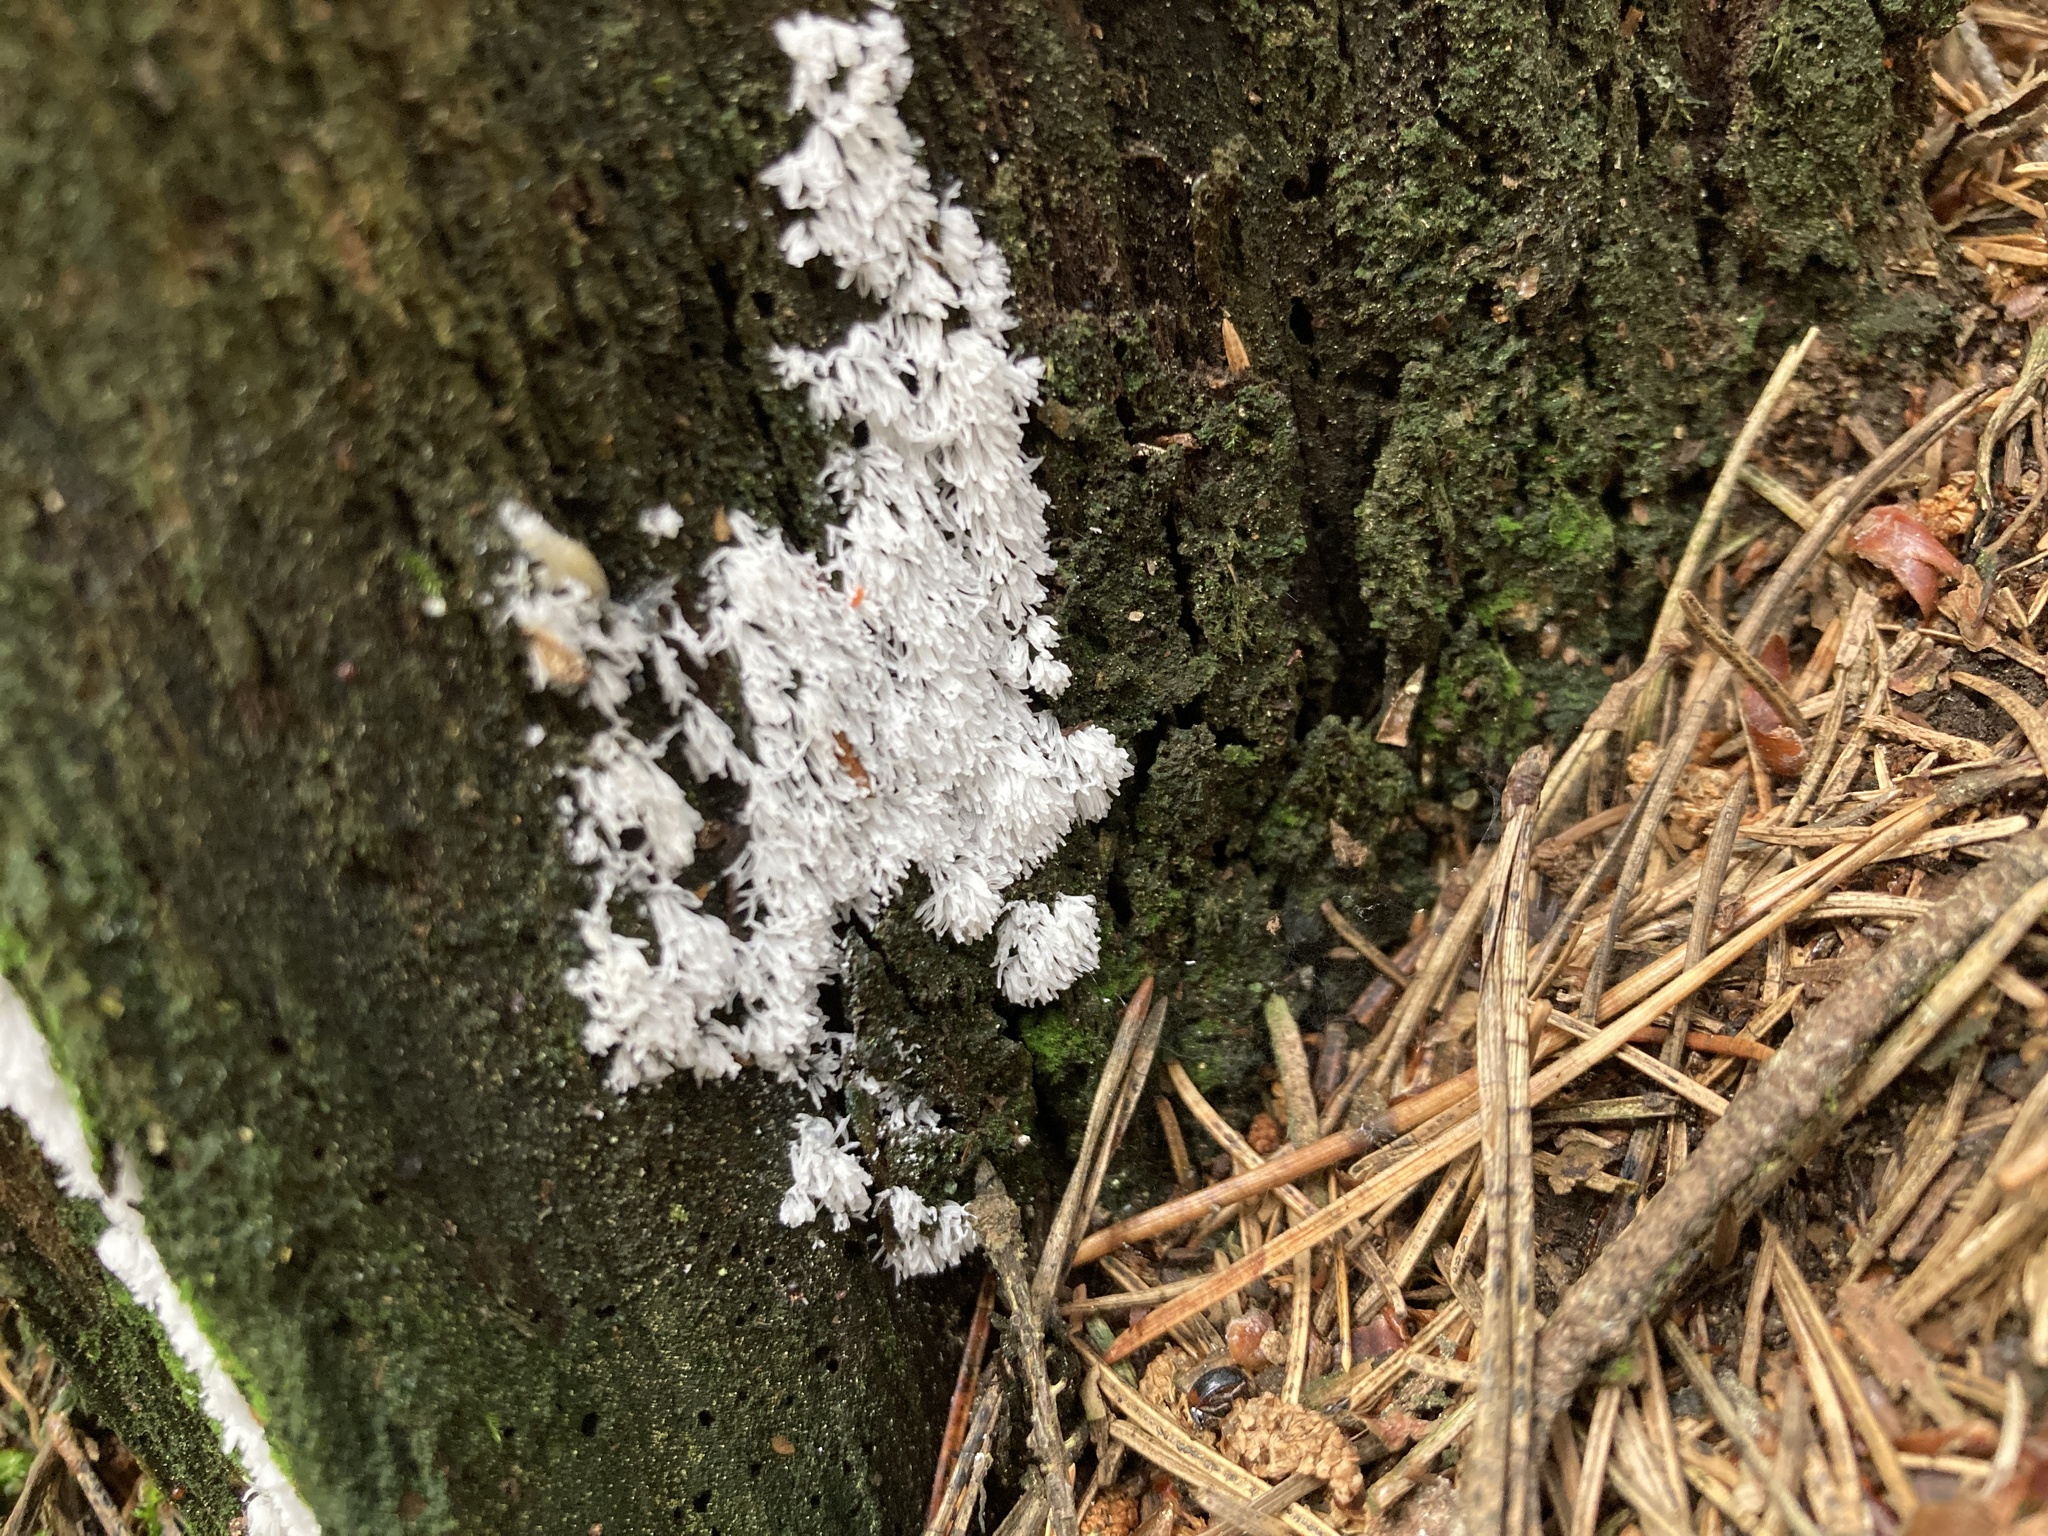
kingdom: Protozoa
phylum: Mycetozoa
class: Protosteliomycetes
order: Ceratiomyxales
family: Ceratiomyxaceae
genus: Ceratiomyxa
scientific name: Ceratiomyxa fruticulosa
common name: Honeycomb coral slime mold
